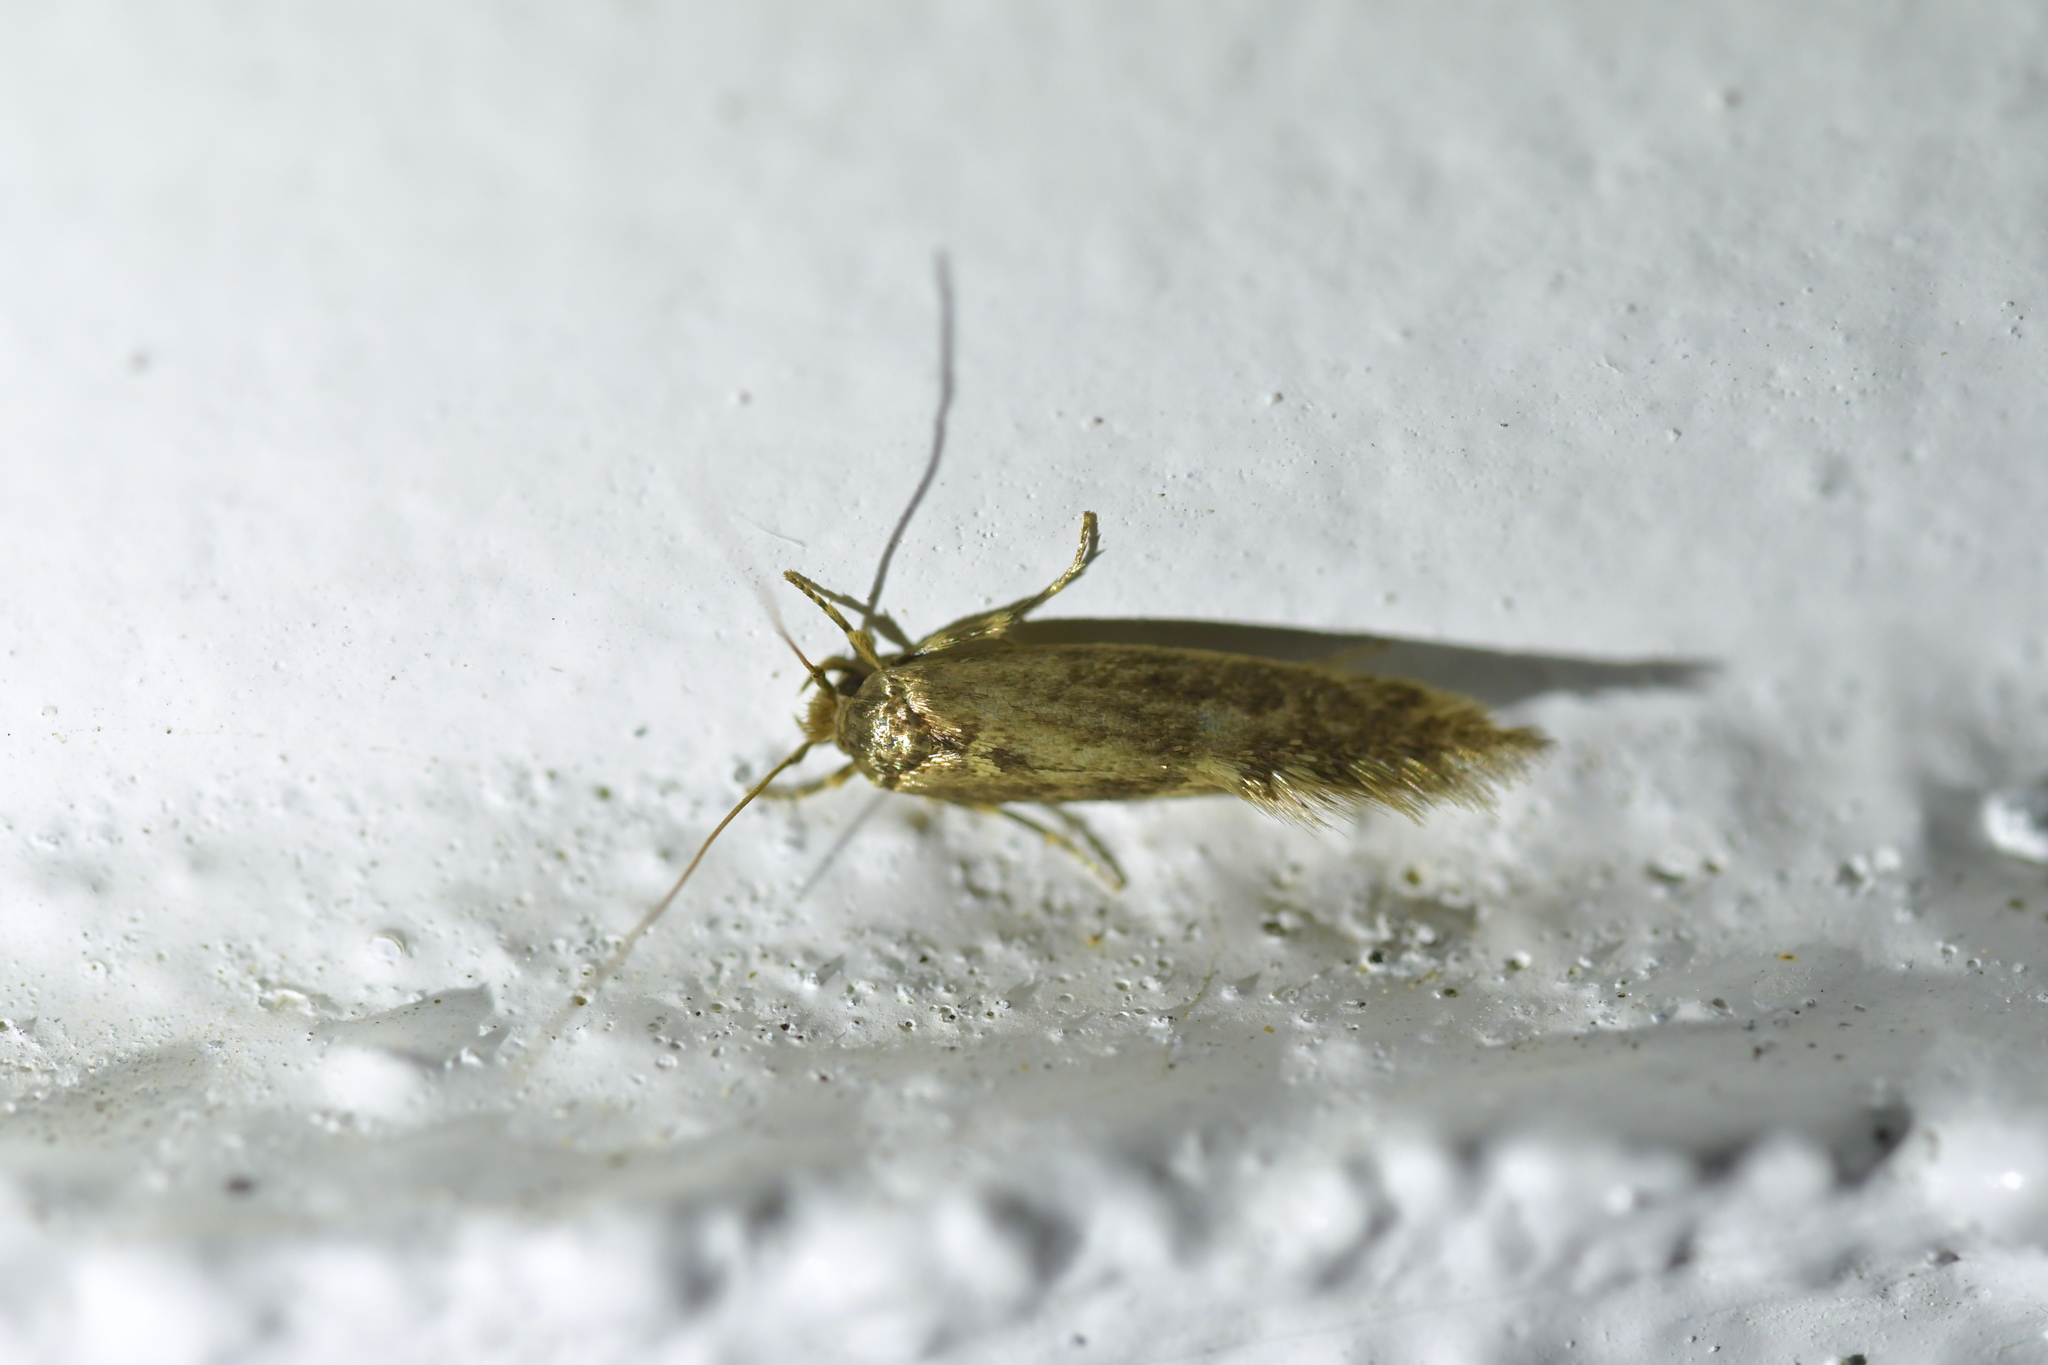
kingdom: Animalia
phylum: Arthropoda
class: Insecta
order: Lepidoptera
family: Tineidae
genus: Opogona
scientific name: Opogona omoscopa
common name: Moth
